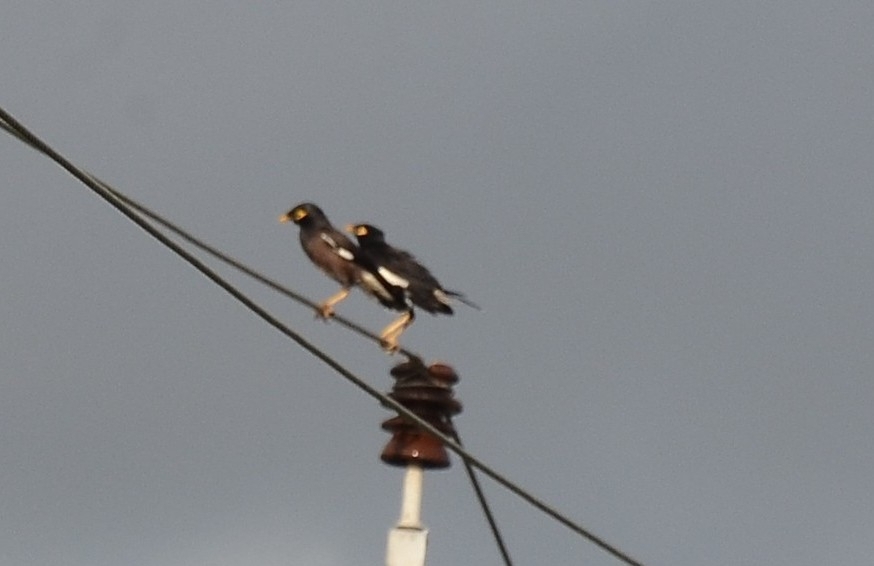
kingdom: Animalia
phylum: Chordata
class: Aves
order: Passeriformes
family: Sturnidae
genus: Acridotheres
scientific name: Acridotheres tristis
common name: Common myna
